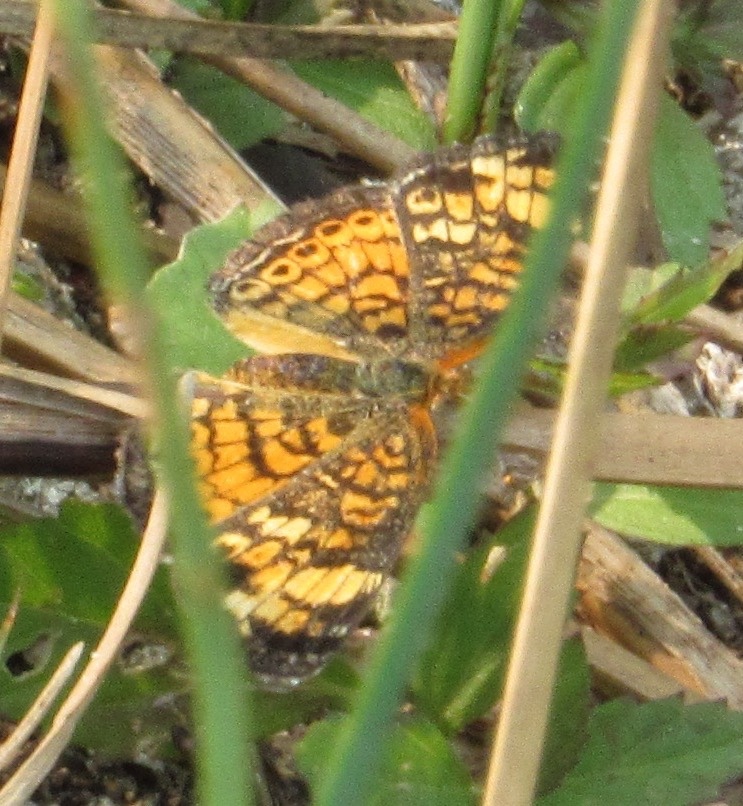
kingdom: Animalia
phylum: Arthropoda
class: Insecta
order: Lepidoptera
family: Nymphalidae
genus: Phyciodes
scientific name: Phyciodes tharos
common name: Pearl crescent
